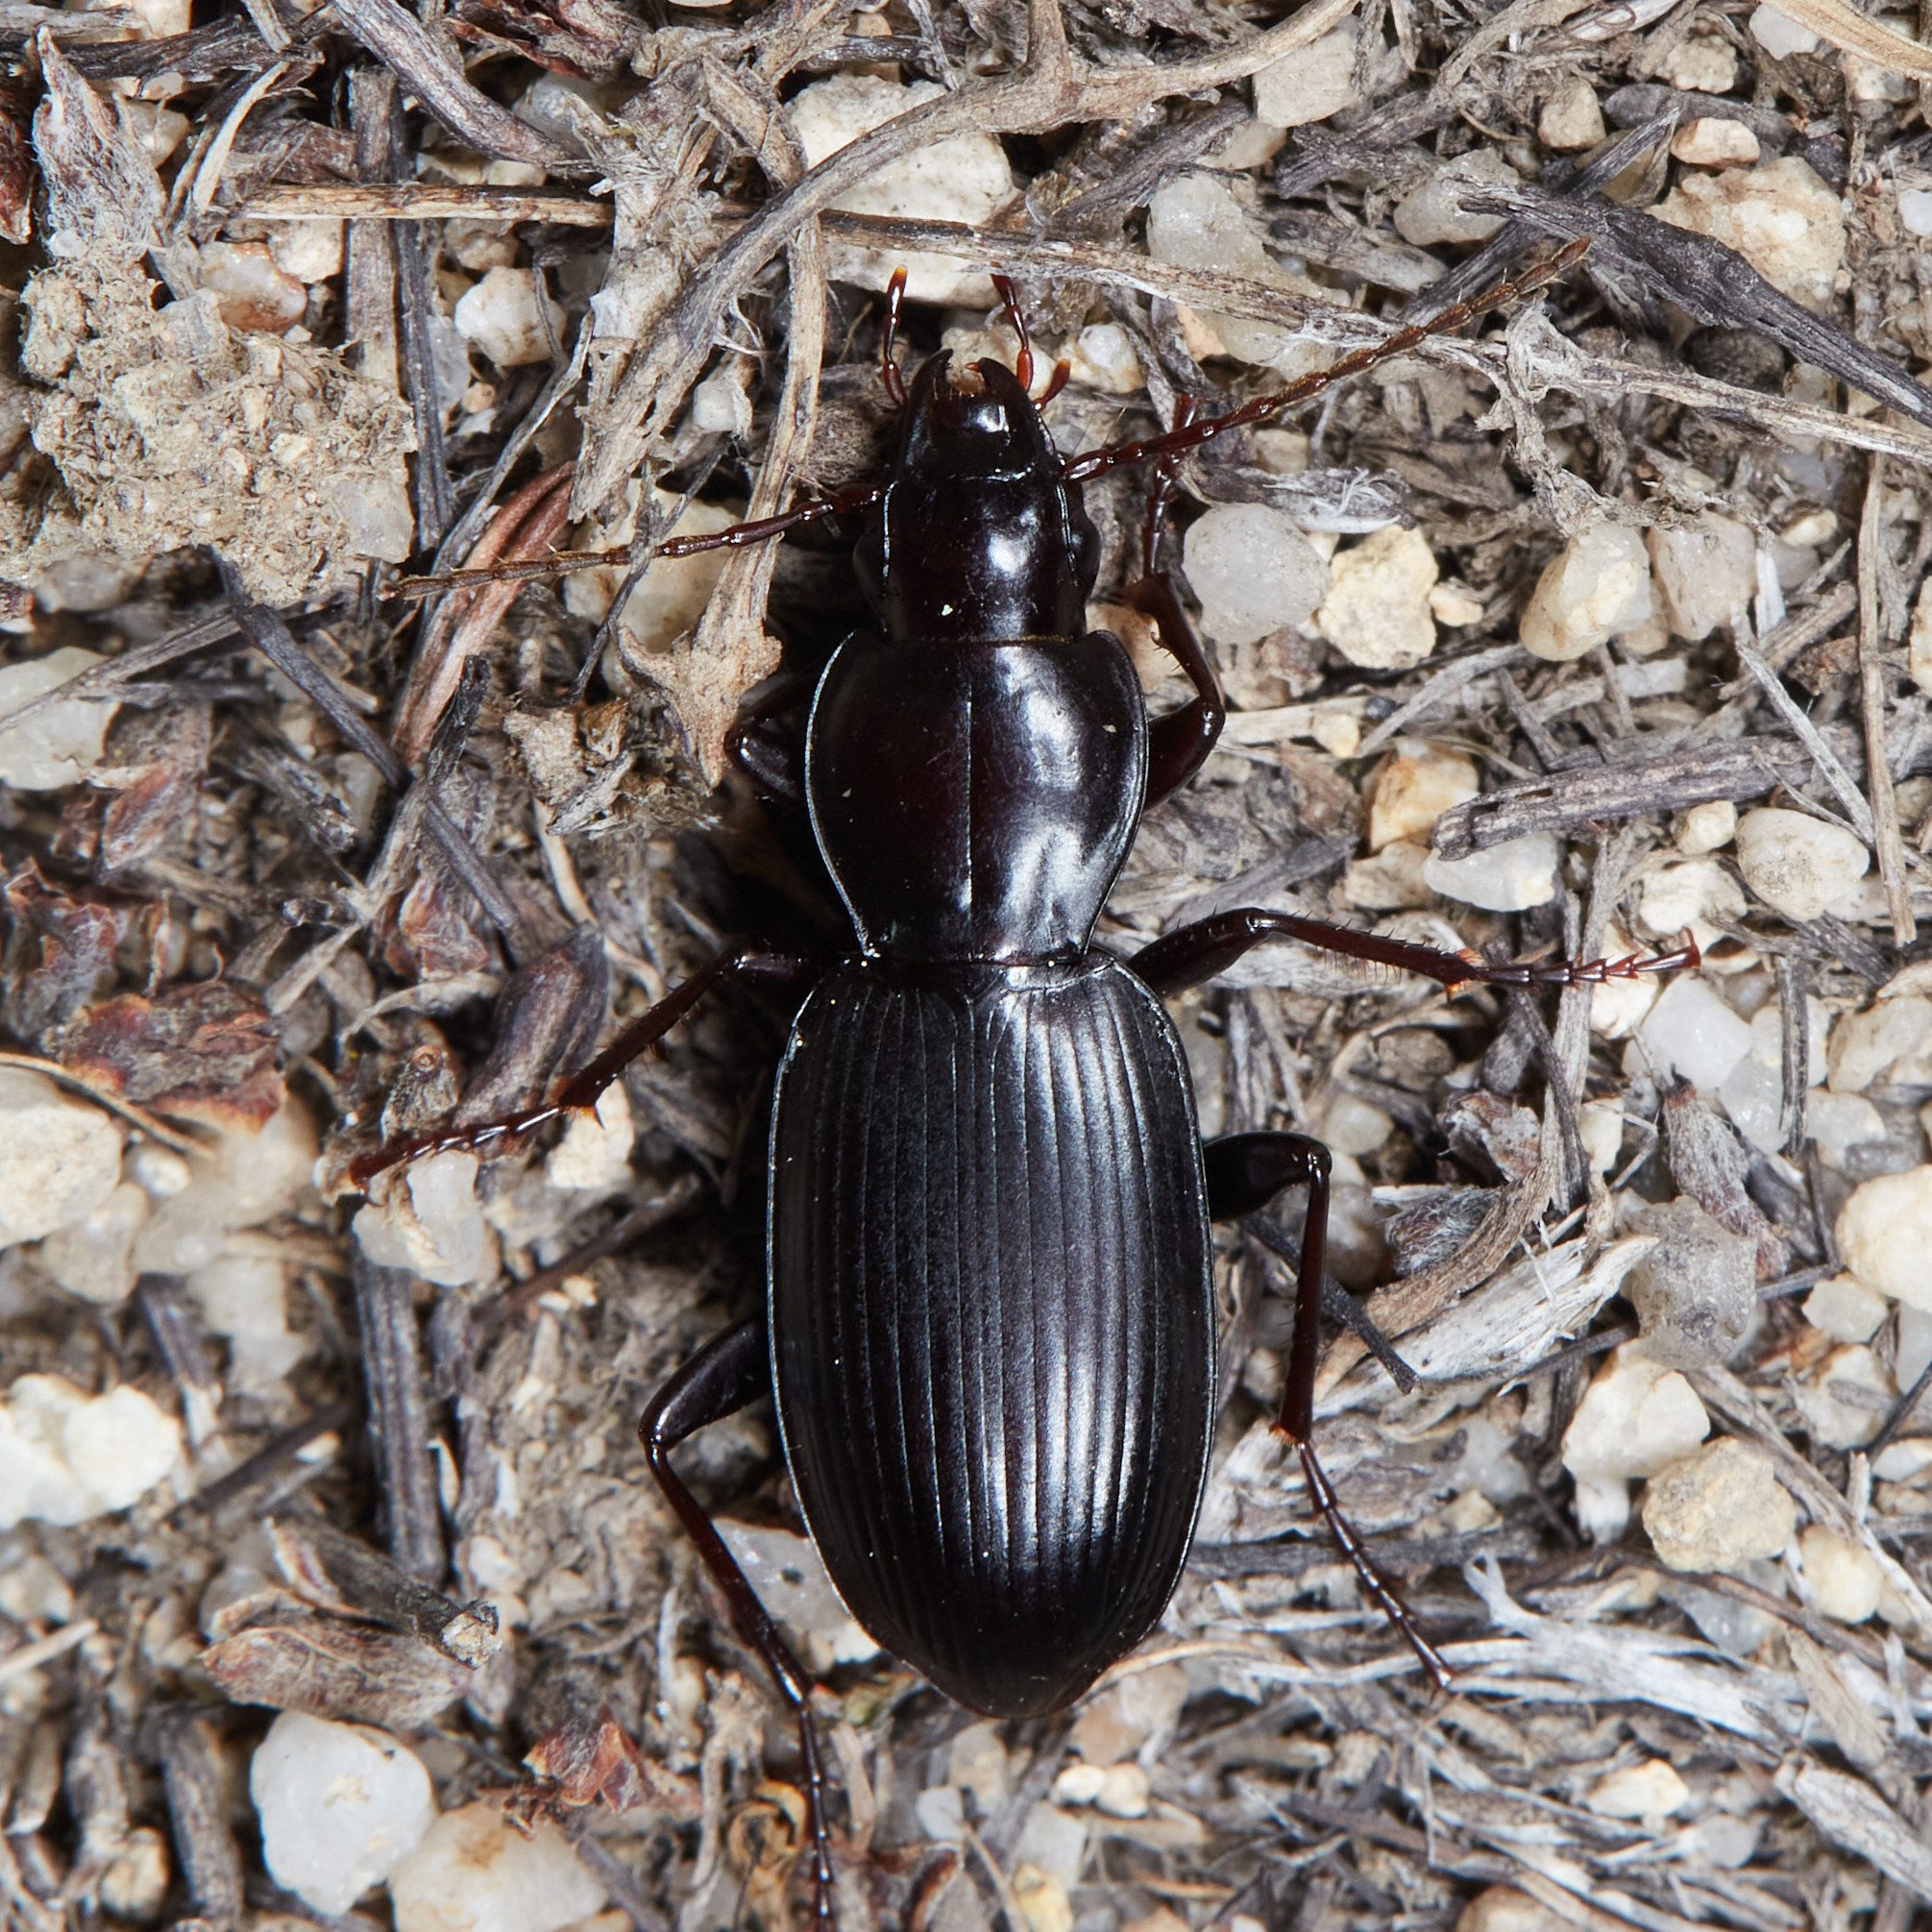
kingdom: Animalia
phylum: Arthropoda
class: Insecta
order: Coleoptera
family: Carabidae
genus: Pterostichus
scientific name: Pterostichus protensiformis
